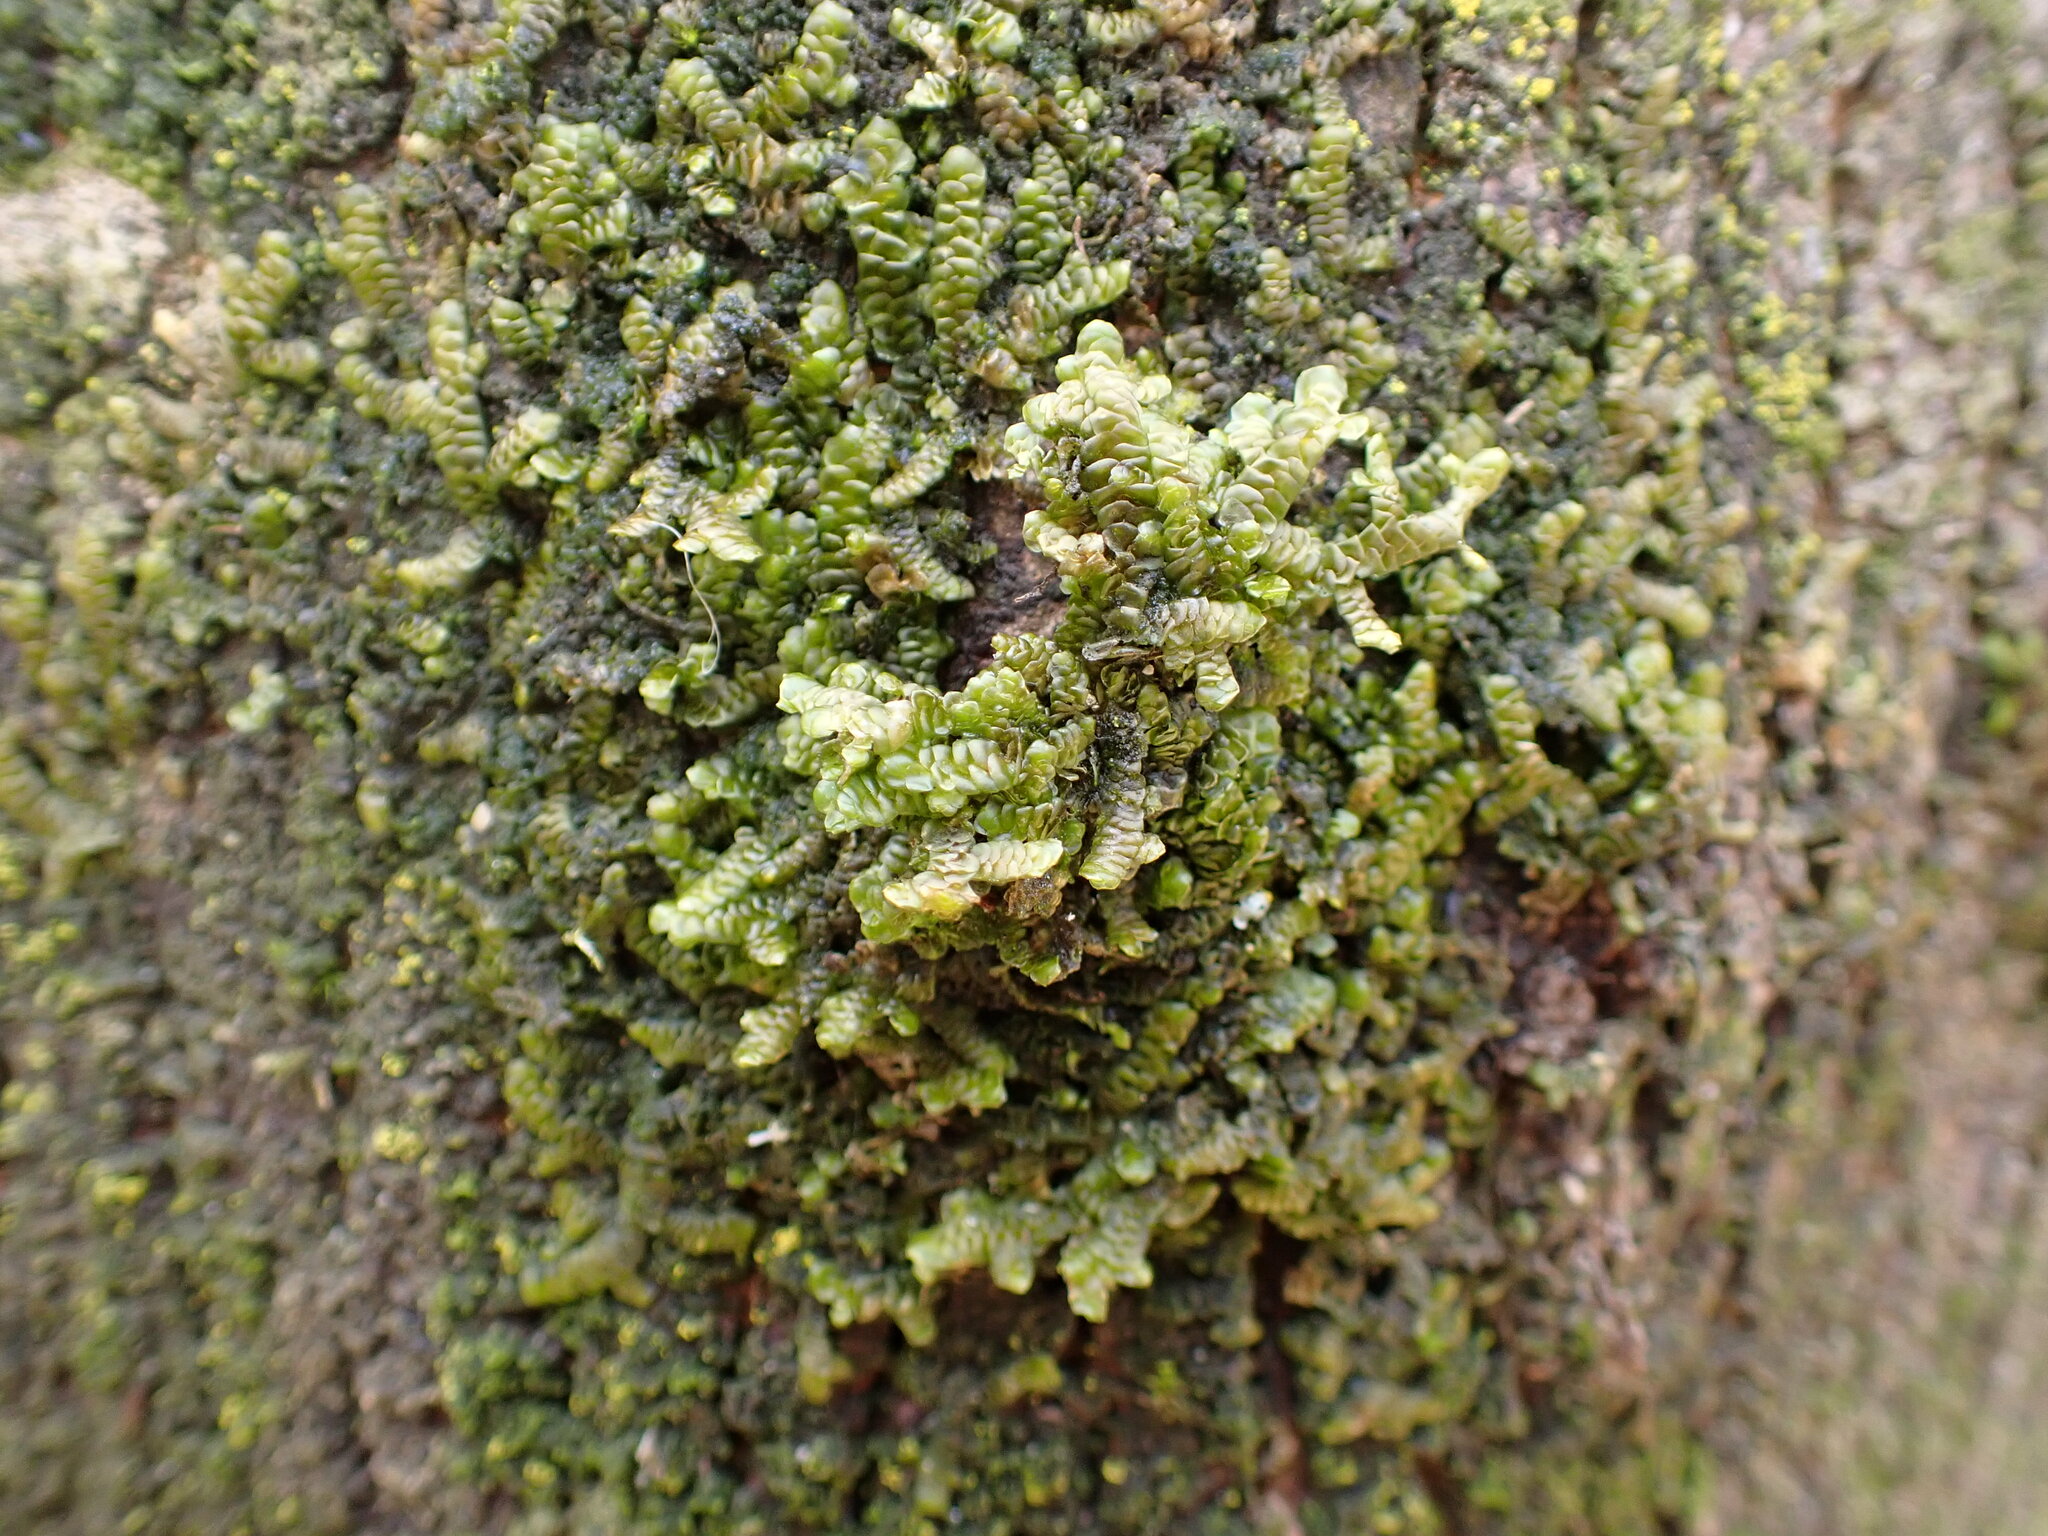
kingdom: Plantae
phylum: Marchantiophyta
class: Jungermanniopsida
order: Porellales
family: Porellaceae
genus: Porella
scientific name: Porella navicularis
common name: Tree ruffle liverwort
